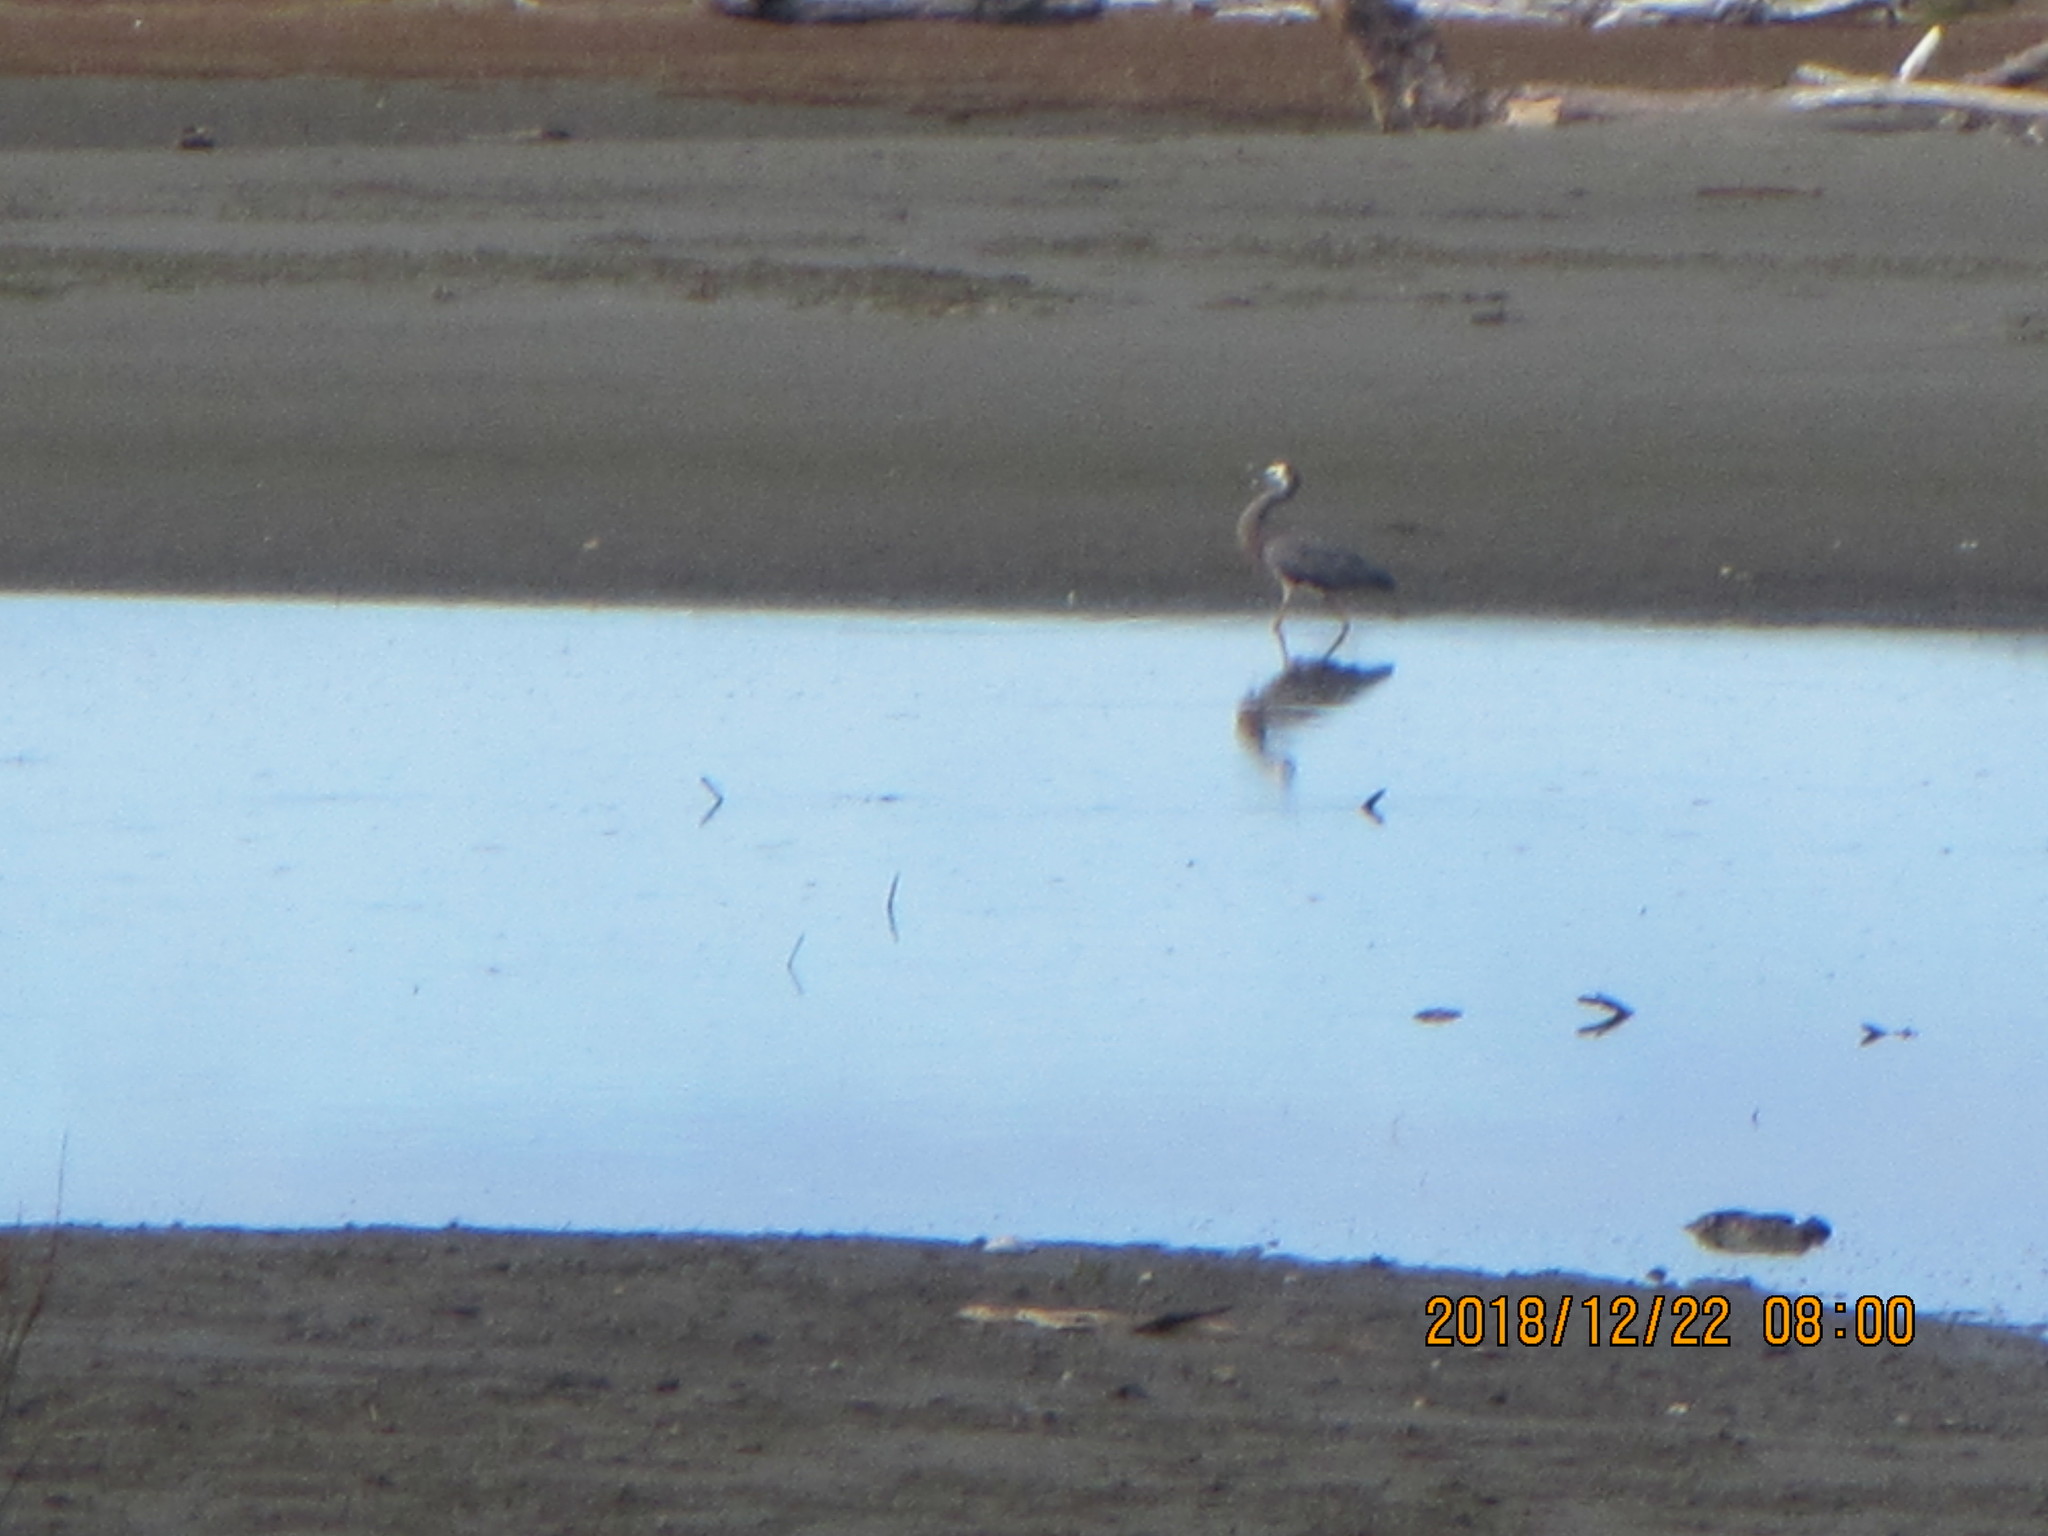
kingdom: Animalia
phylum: Chordata
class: Aves
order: Pelecaniformes
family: Ardeidae
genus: Egretta
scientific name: Egretta novaehollandiae
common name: White-faced heron
